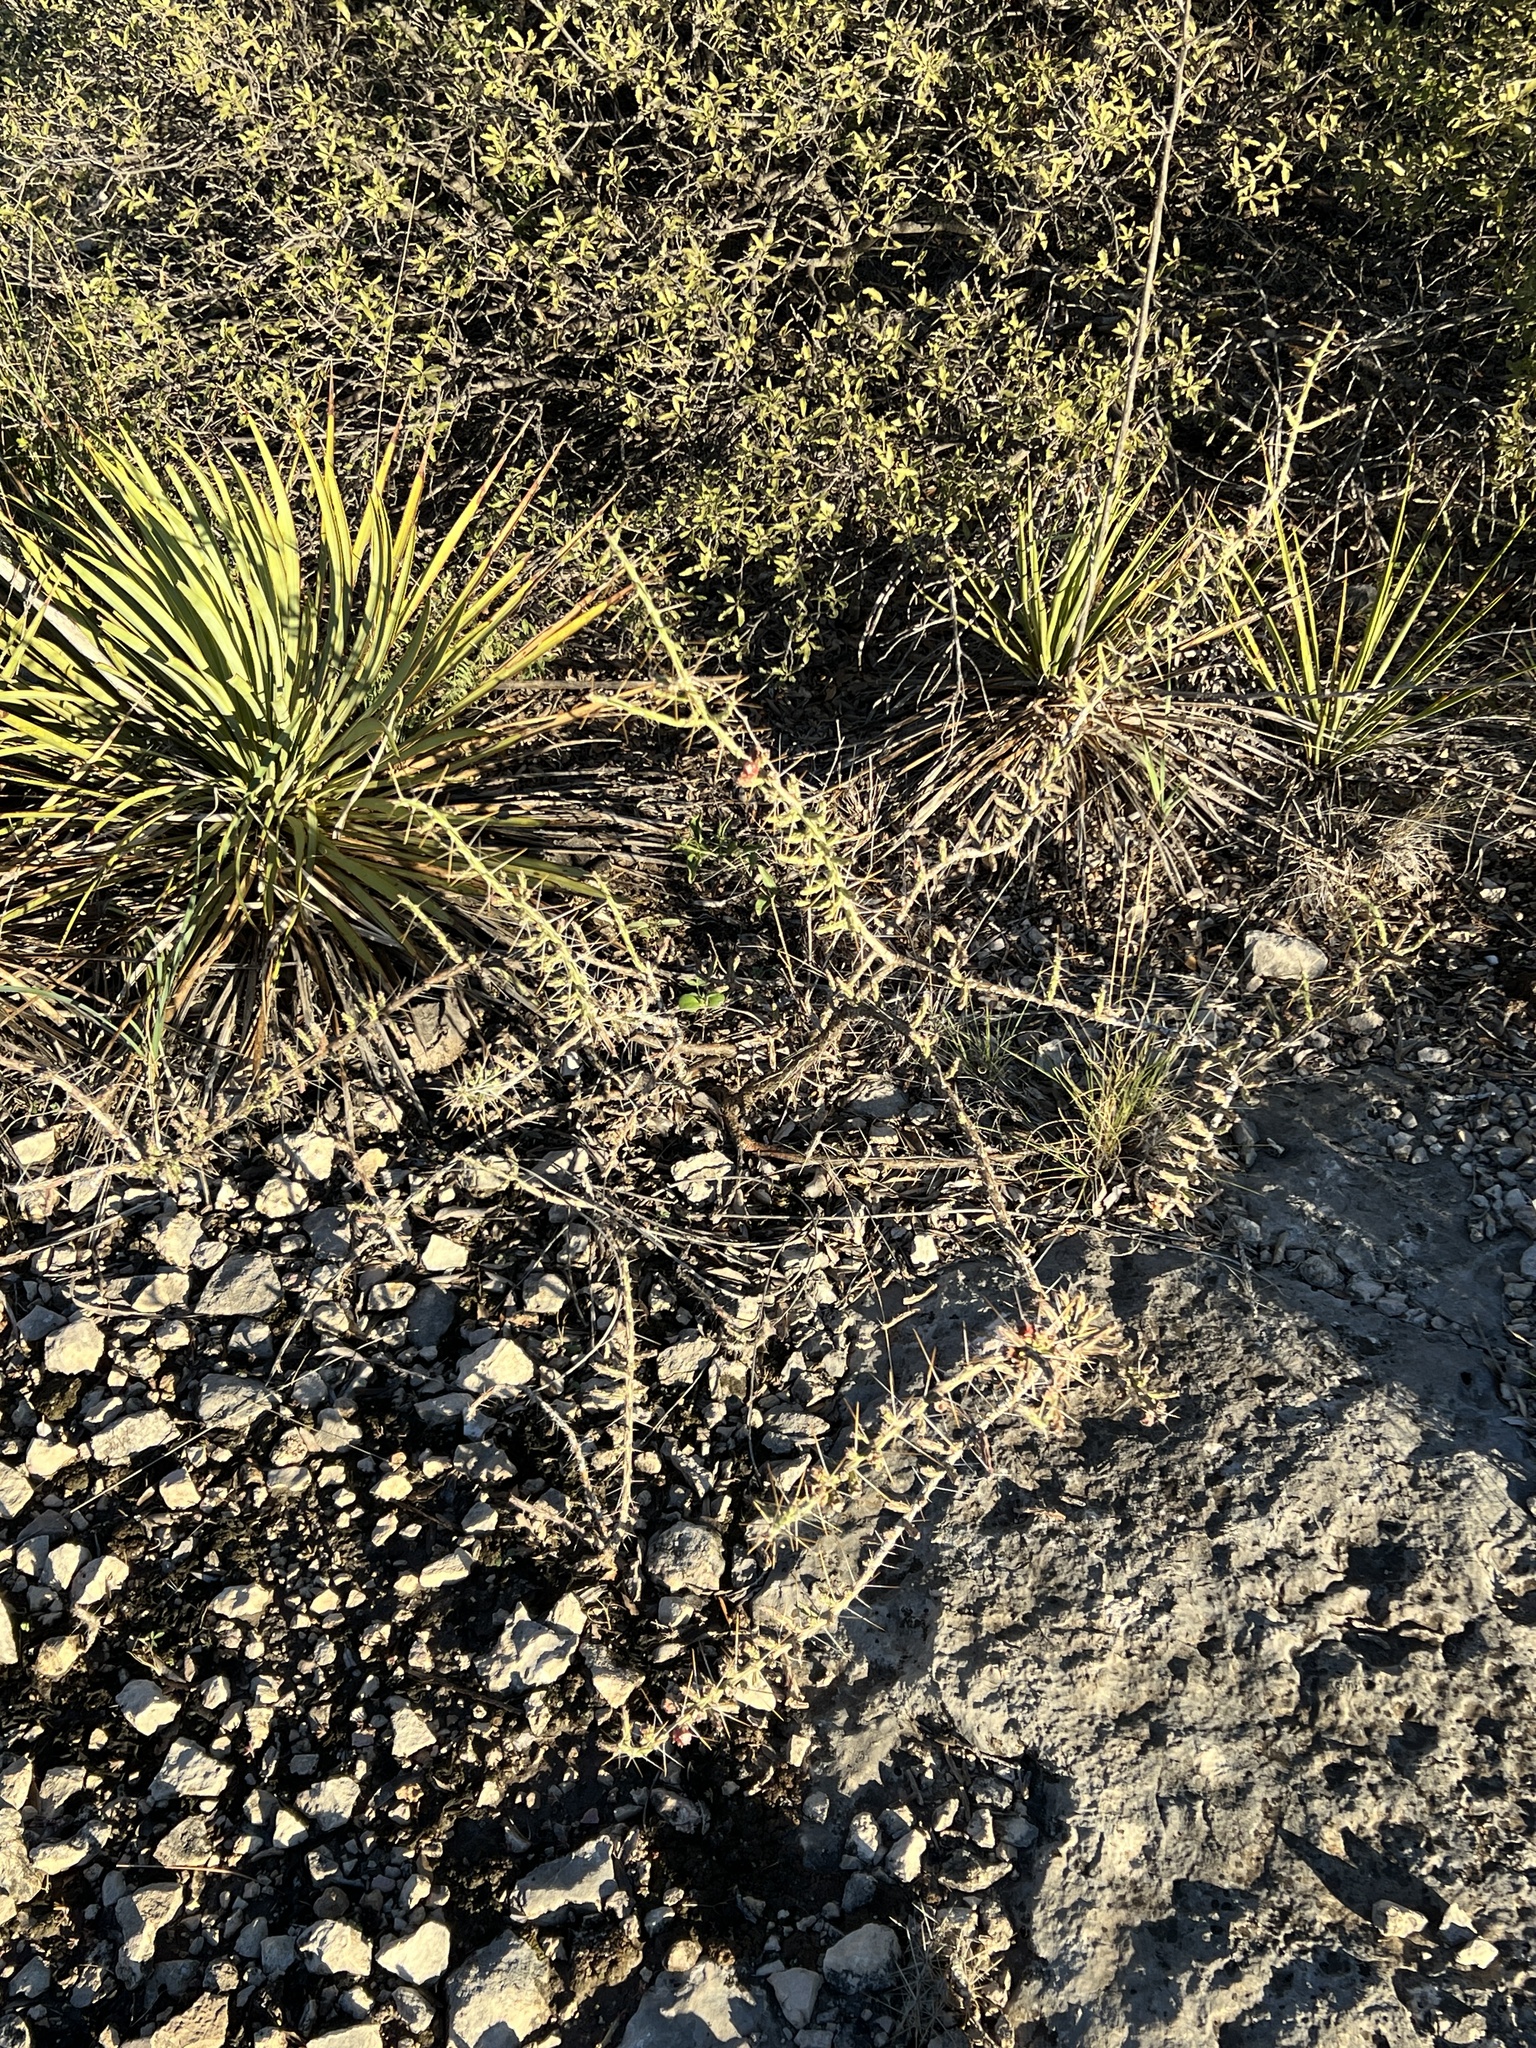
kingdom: Plantae
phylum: Tracheophyta
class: Magnoliopsida
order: Caryophyllales
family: Cactaceae
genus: Cylindropuntia
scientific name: Cylindropuntia leptocaulis
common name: Christmas cactus
